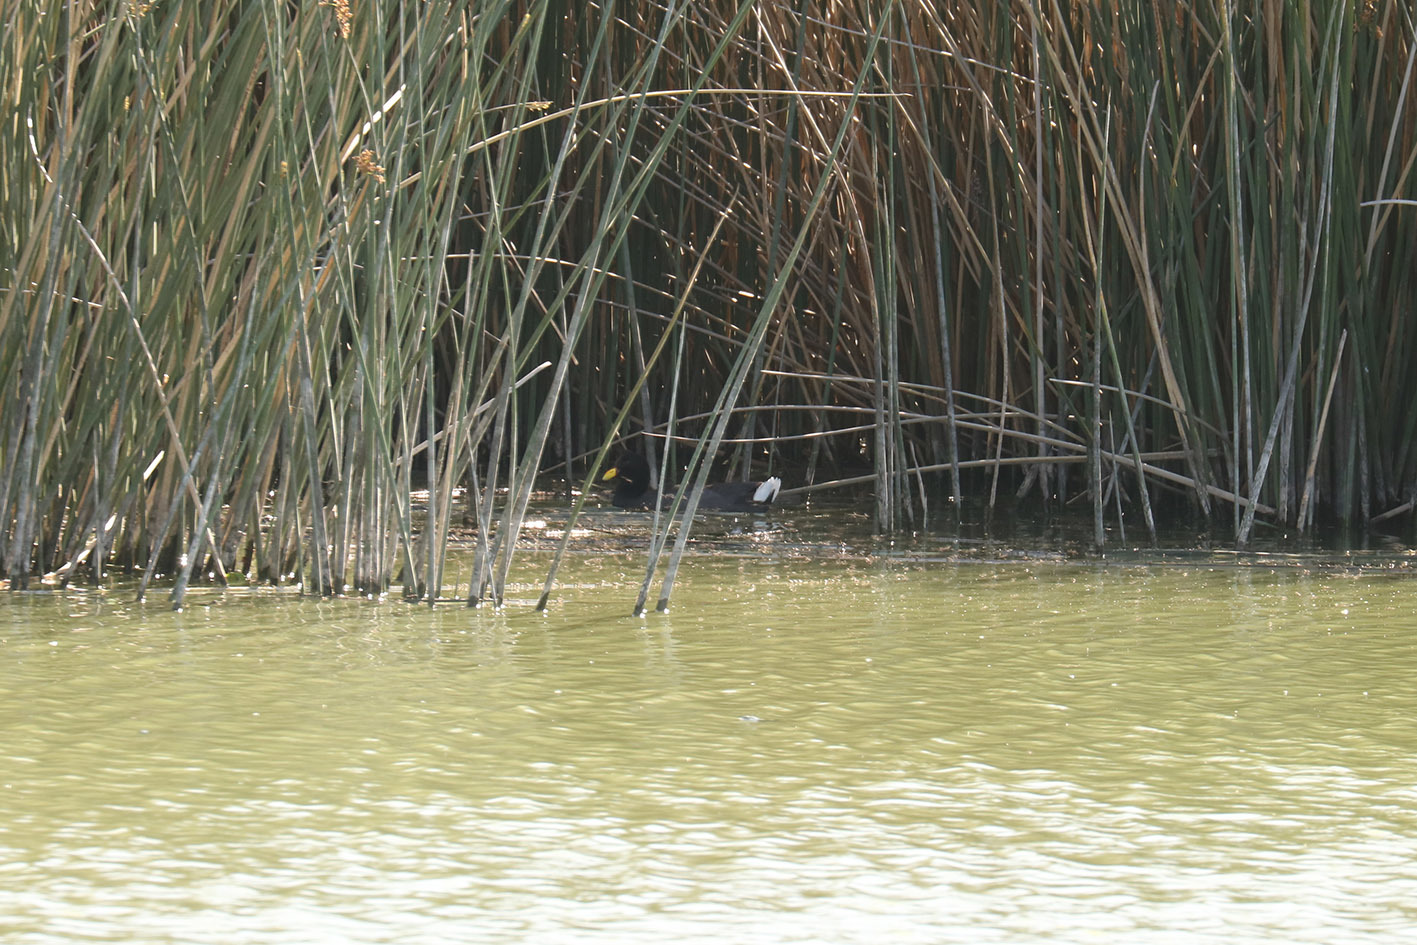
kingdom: Animalia
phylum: Chordata
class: Aves
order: Gruiformes
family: Rallidae
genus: Fulica
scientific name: Fulica rufifrons
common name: Red-fronted coot
